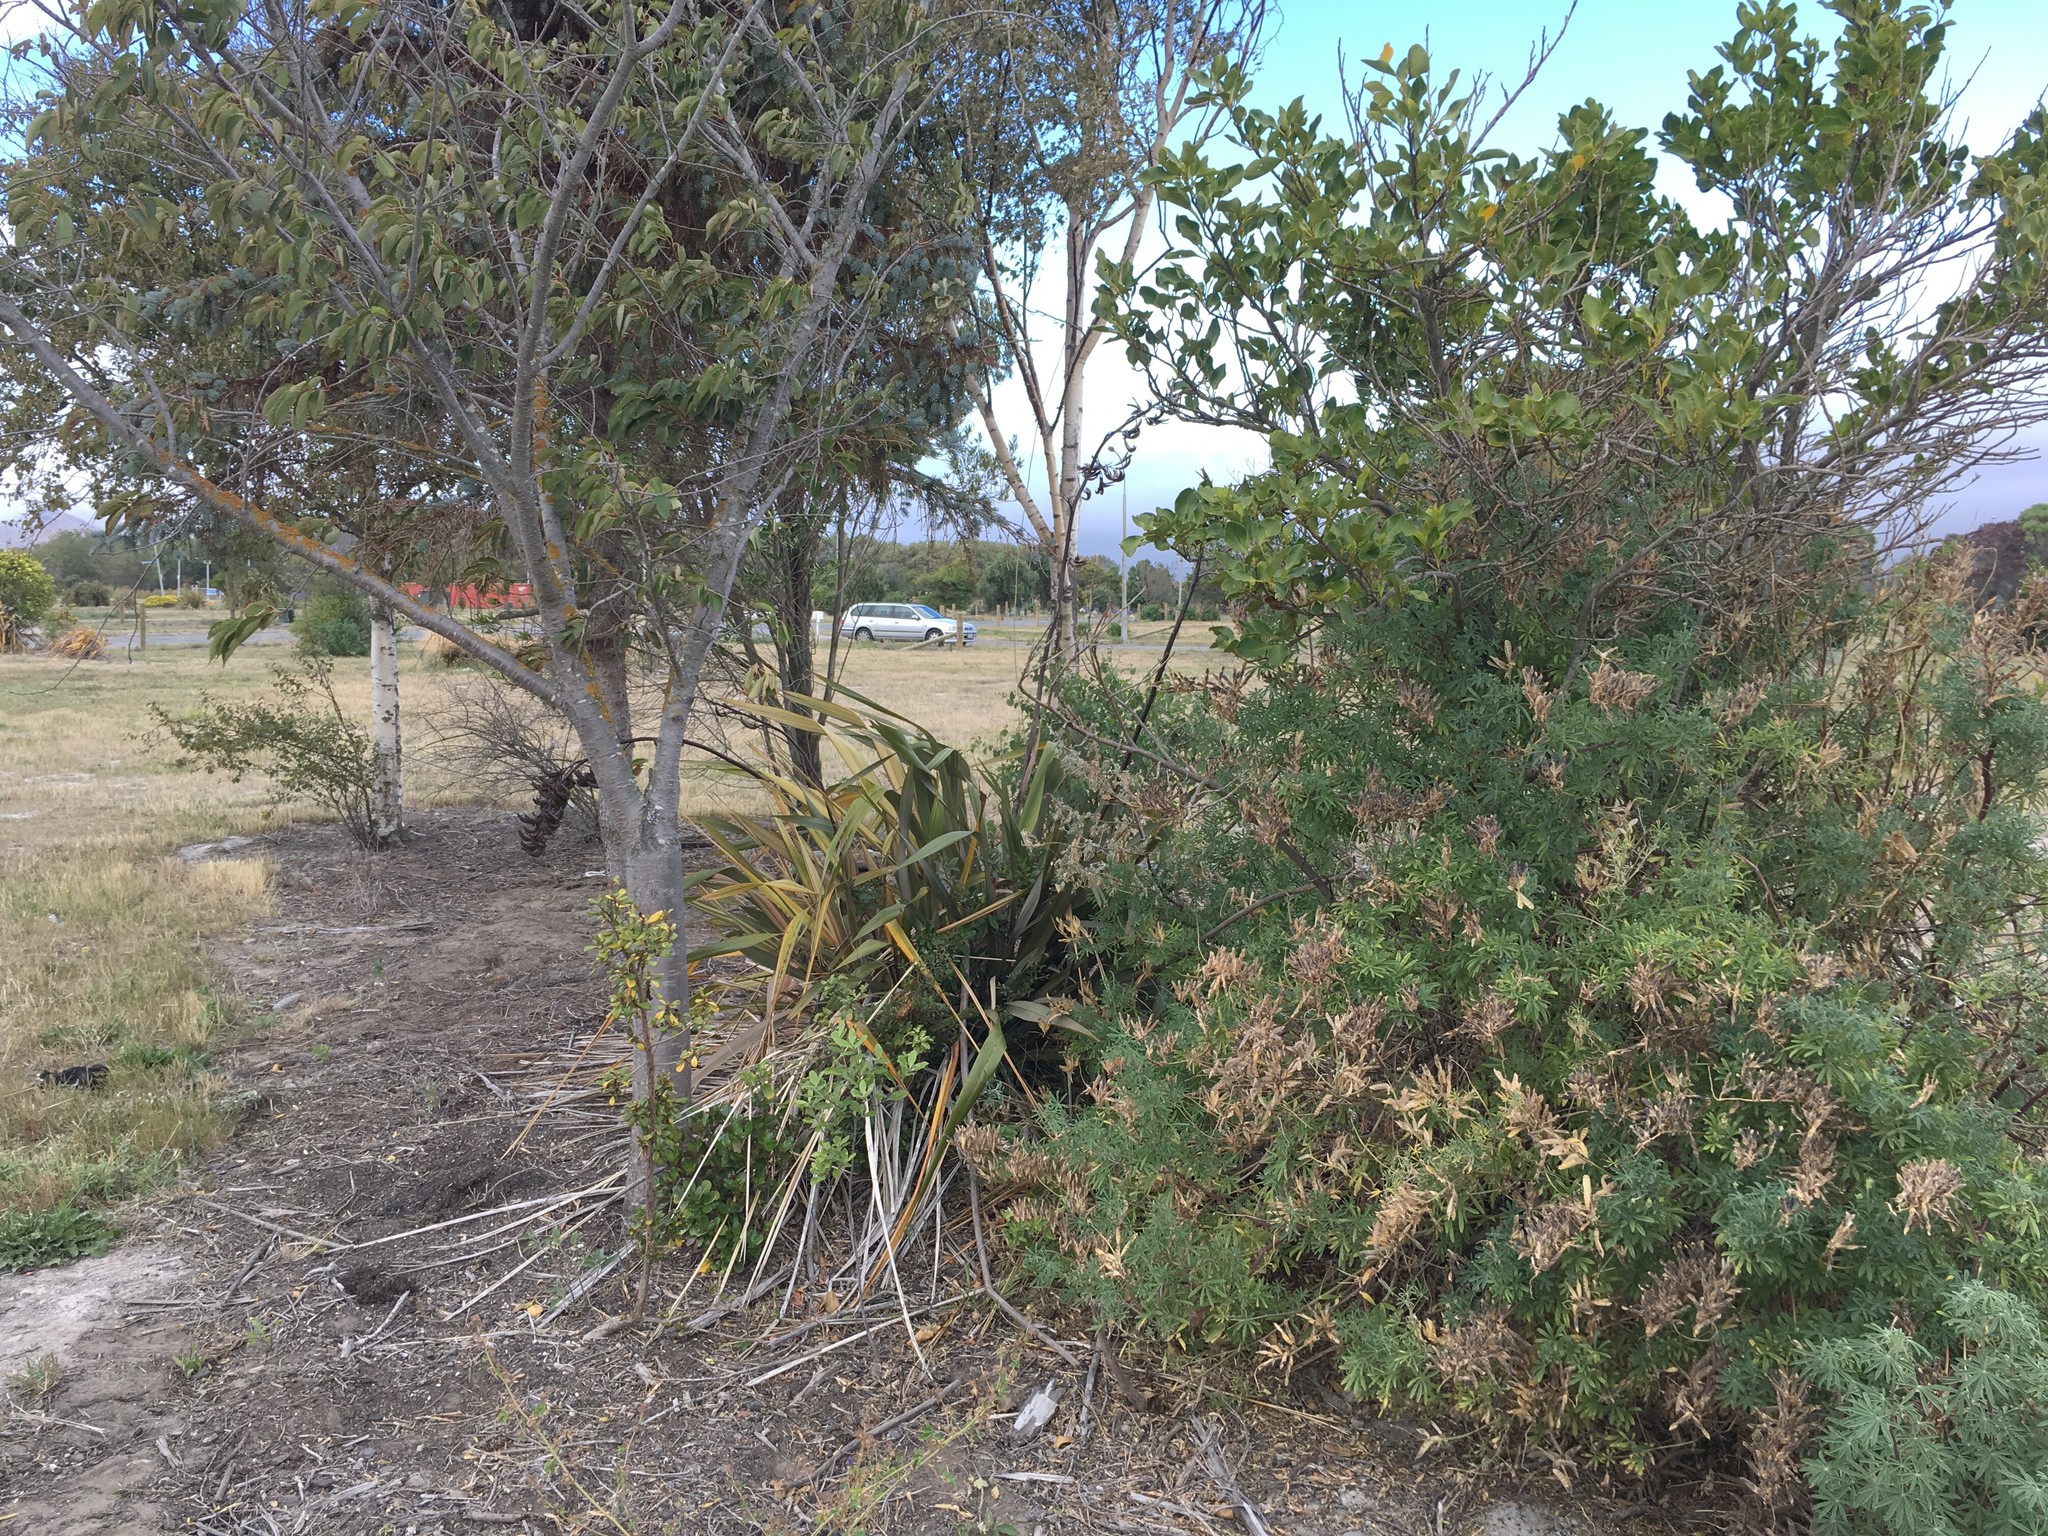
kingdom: Plantae
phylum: Tracheophyta
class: Magnoliopsida
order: Fabales
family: Fabaceae
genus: Lupinus
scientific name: Lupinus arboreus
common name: Yellow bush lupine
